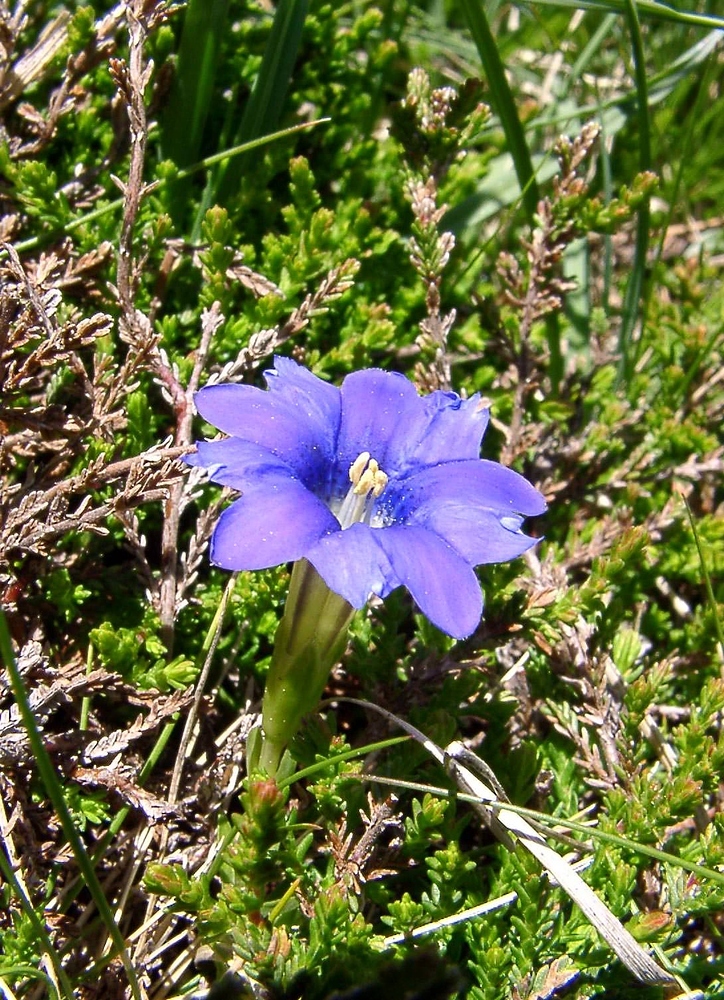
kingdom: Plantae
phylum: Tracheophyta
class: Magnoliopsida
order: Gentianales
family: Gentianaceae
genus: Gentiana
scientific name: Gentiana pyrenaica
